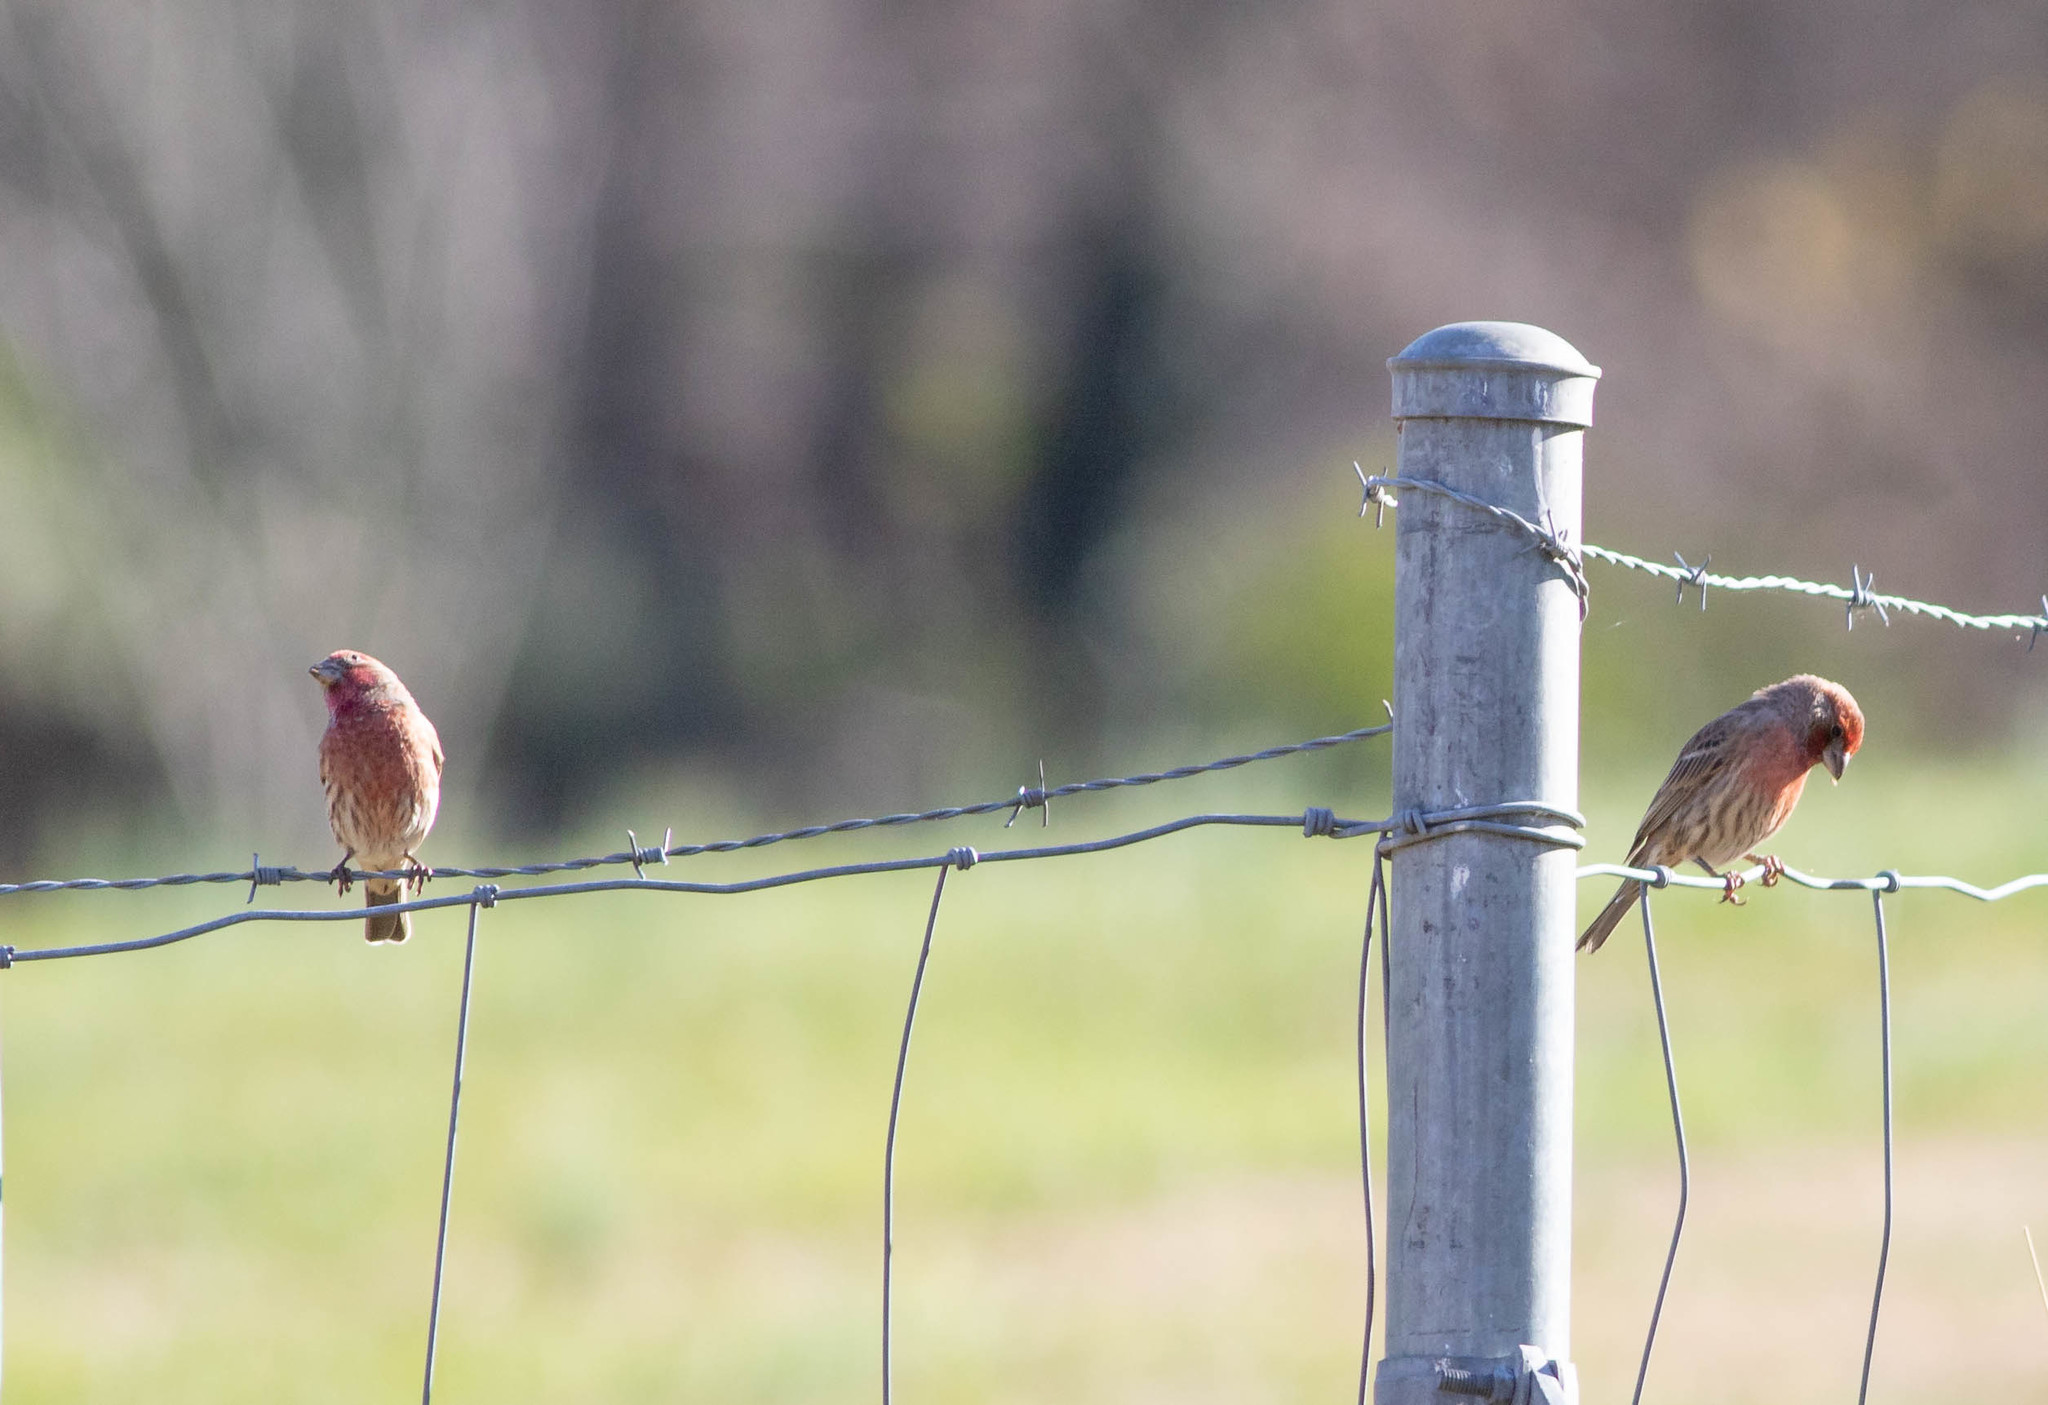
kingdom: Animalia
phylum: Chordata
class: Aves
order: Passeriformes
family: Fringillidae
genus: Haemorhous
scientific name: Haemorhous mexicanus
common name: House finch
